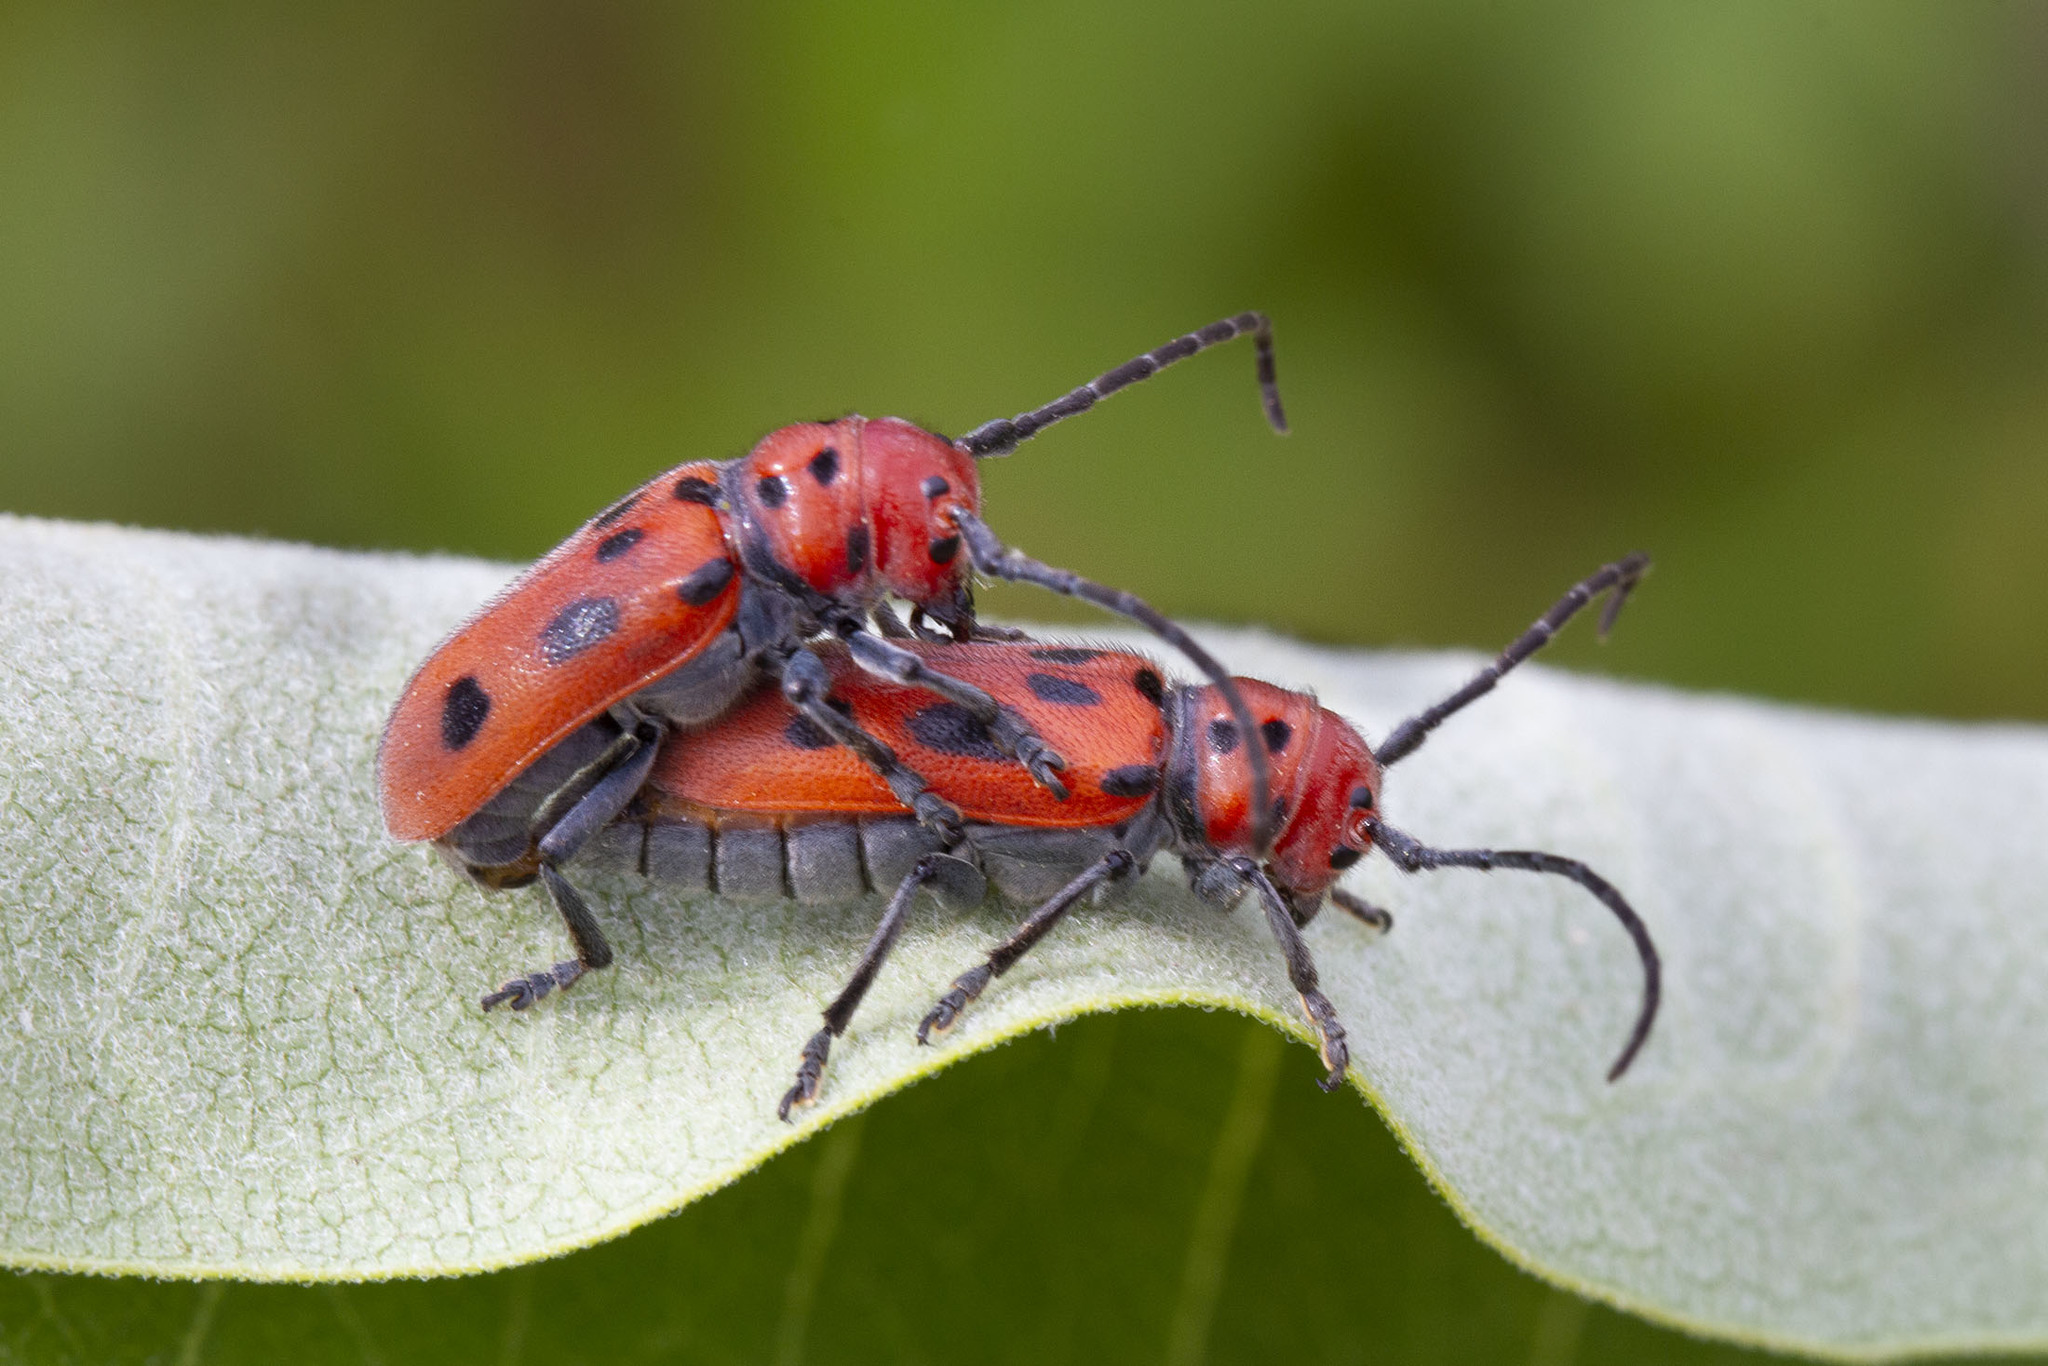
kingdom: Animalia
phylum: Arthropoda
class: Insecta
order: Coleoptera
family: Cerambycidae
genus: Tetraopes
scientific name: Tetraopes tetrophthalmus
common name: Red milkweed beetle
